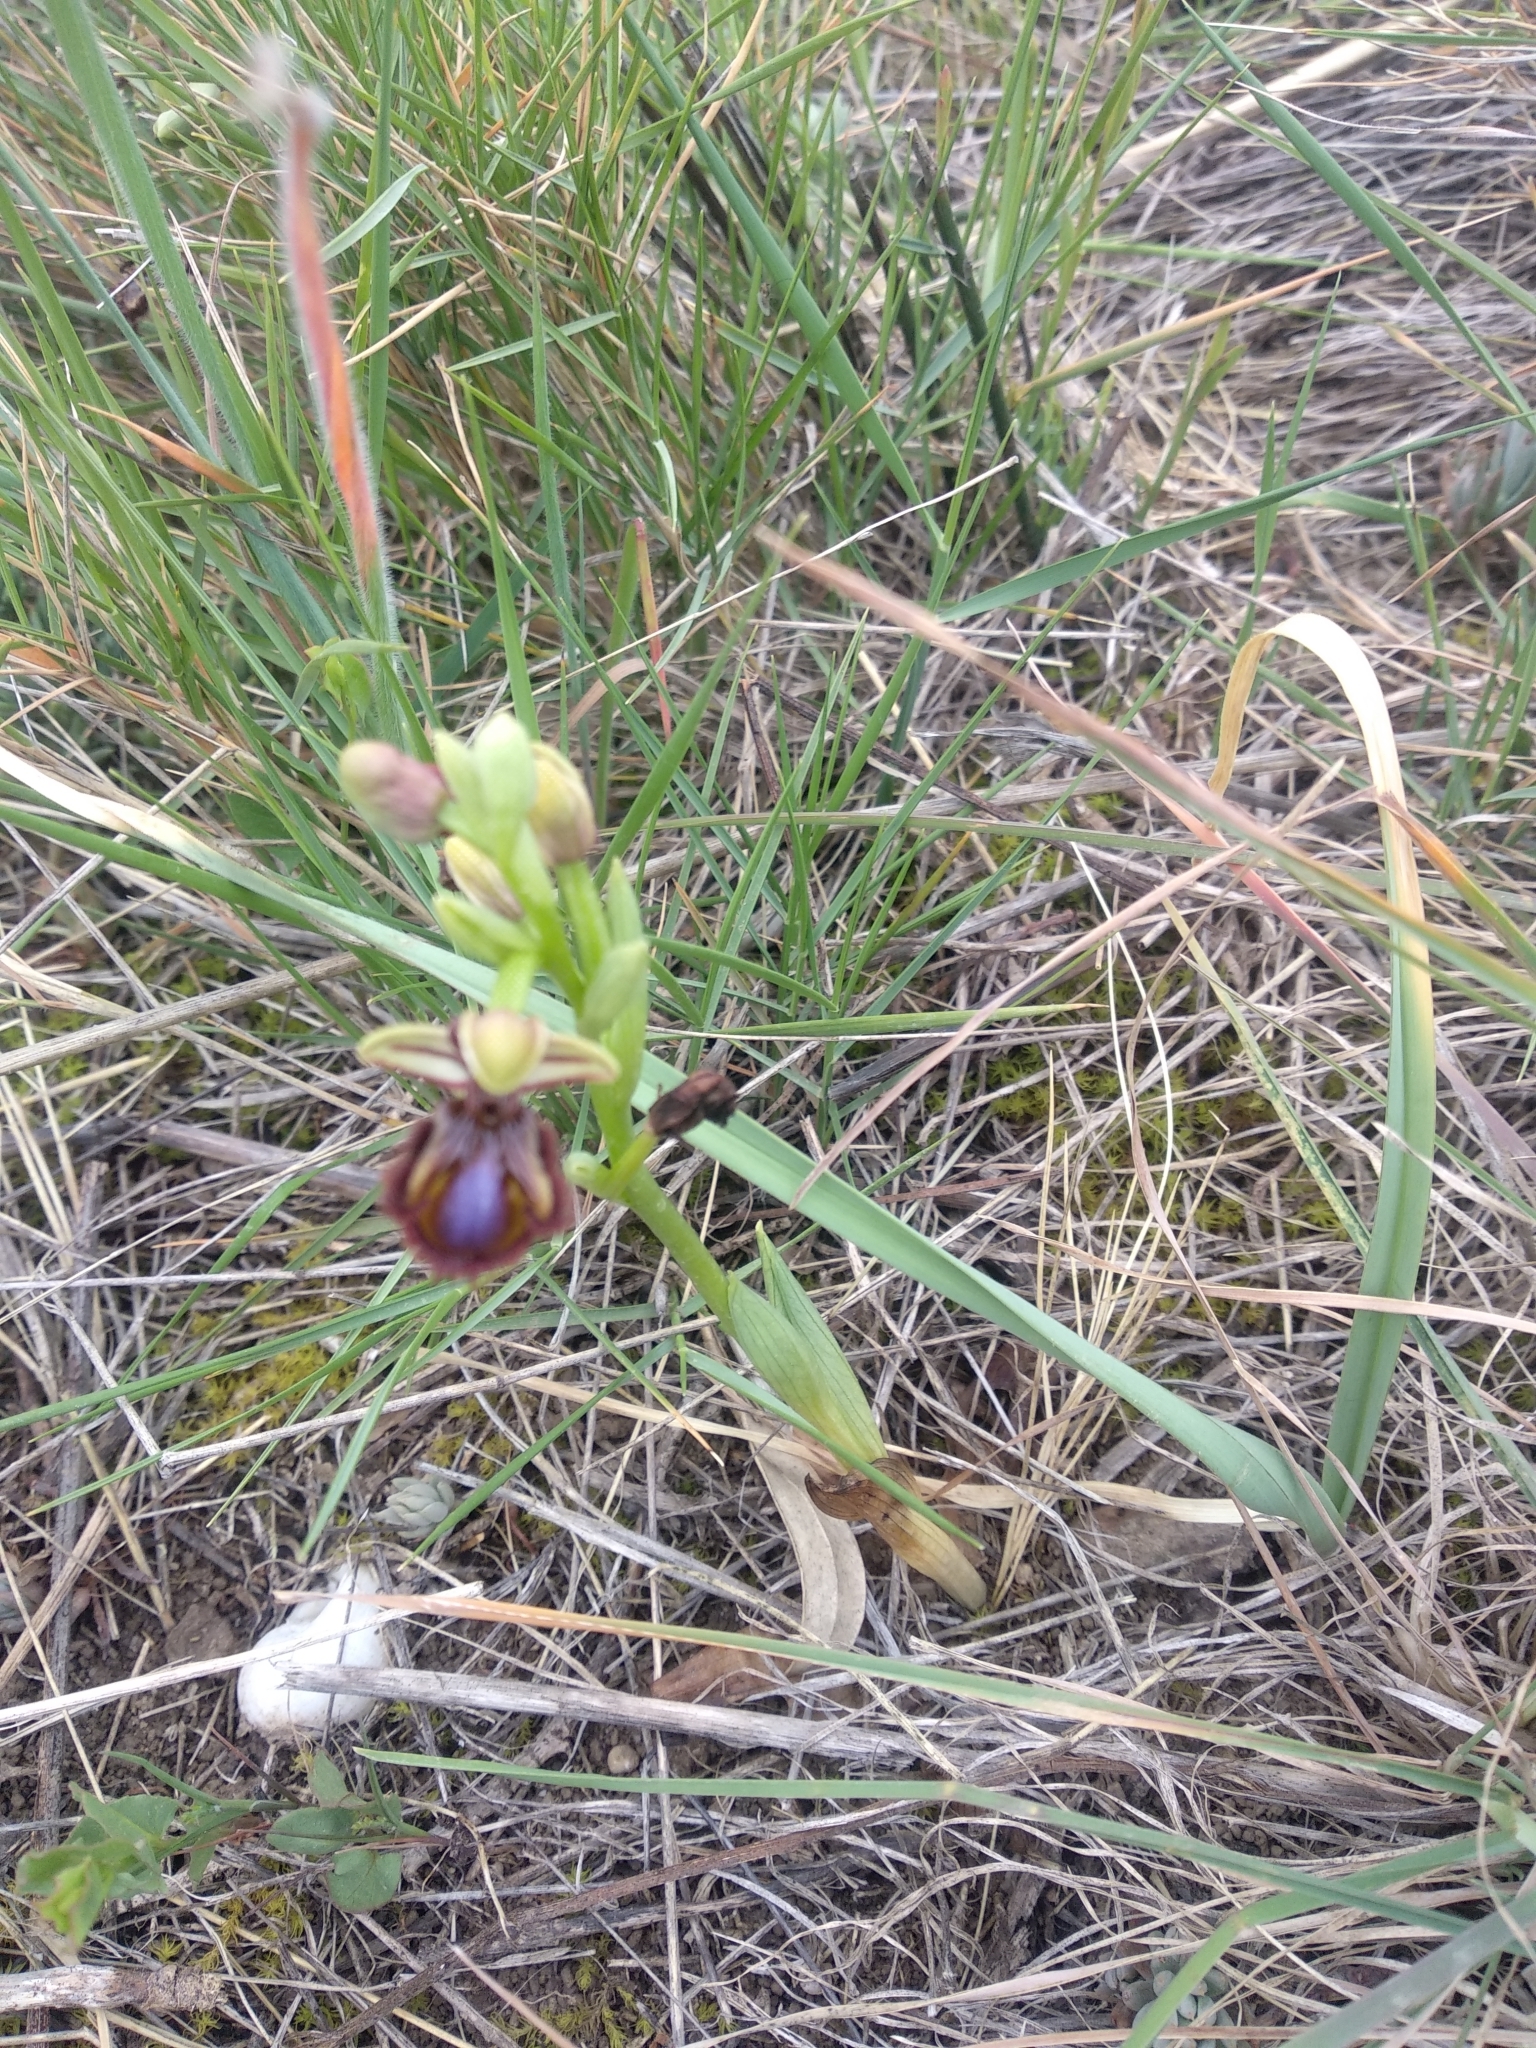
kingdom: Plantae
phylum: Tracheophyta
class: Liliopsida
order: Asparagales
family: Orchidaceae
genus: Ophrys
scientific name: Ophrys speculum
